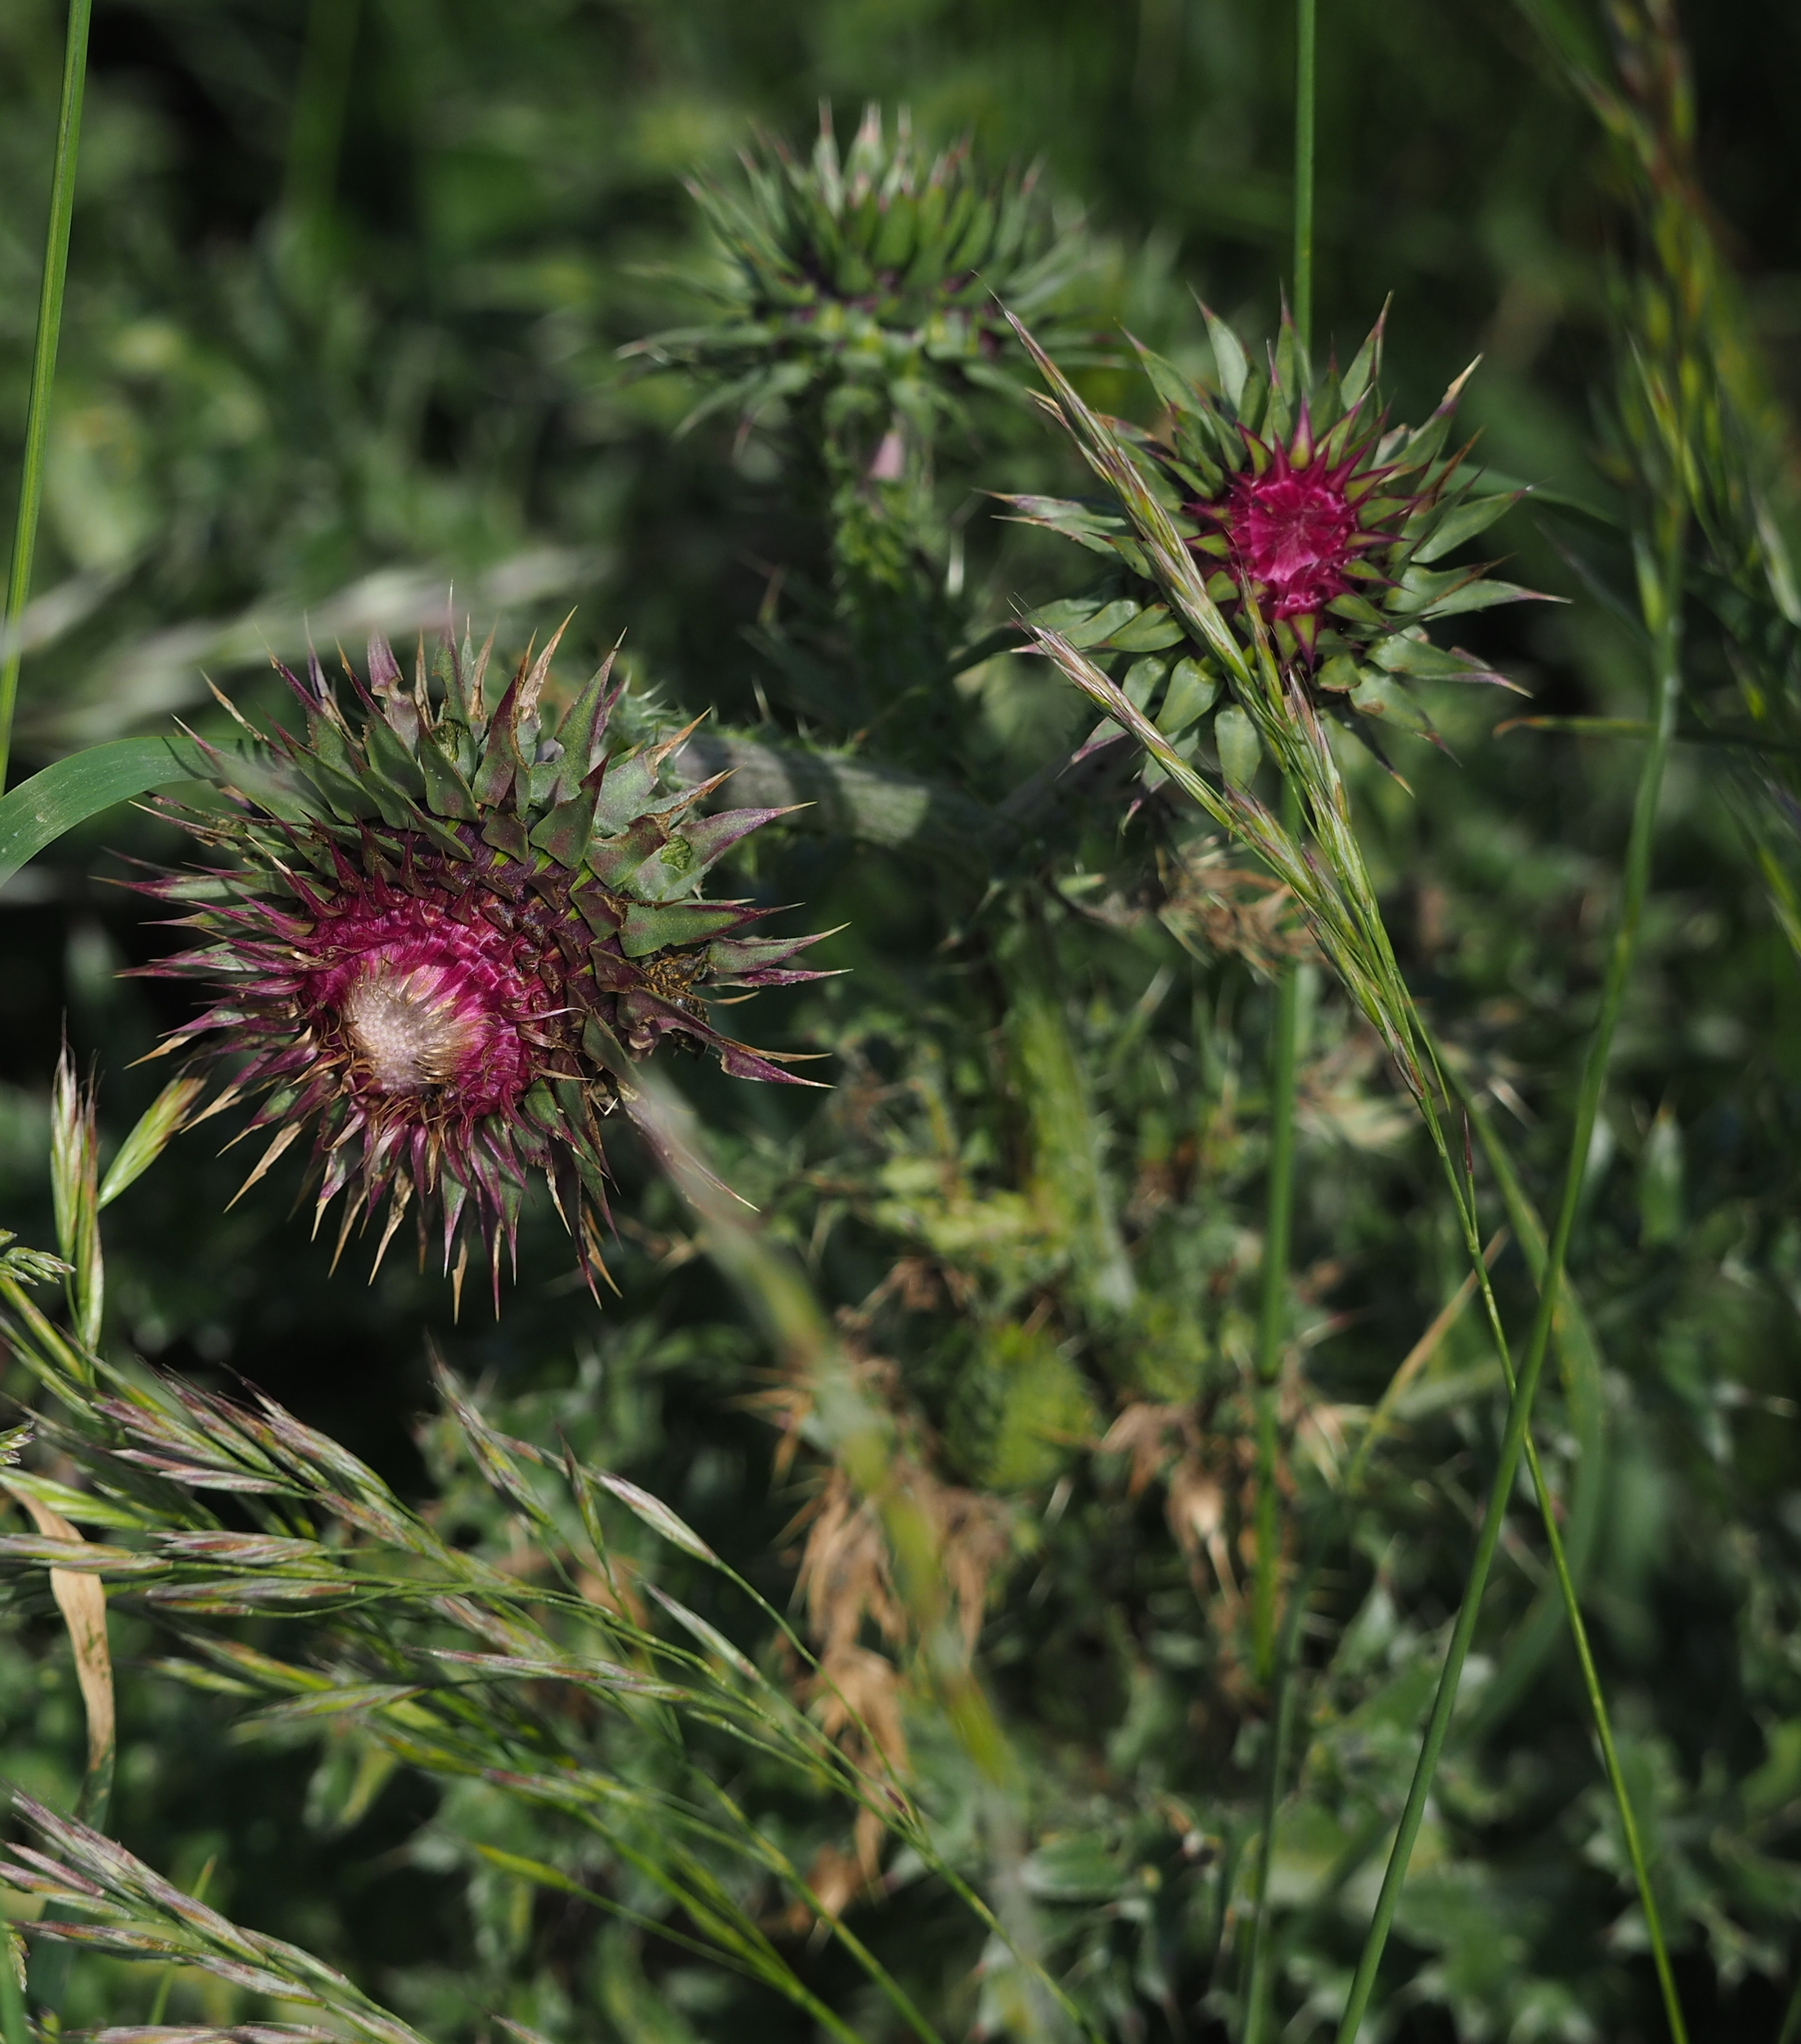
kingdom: Plantae
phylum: Tracheophyta
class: Magnoliopsida
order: Asterales
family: Asteraceae
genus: Carduus
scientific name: Carduus nutans
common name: Musk thistle
